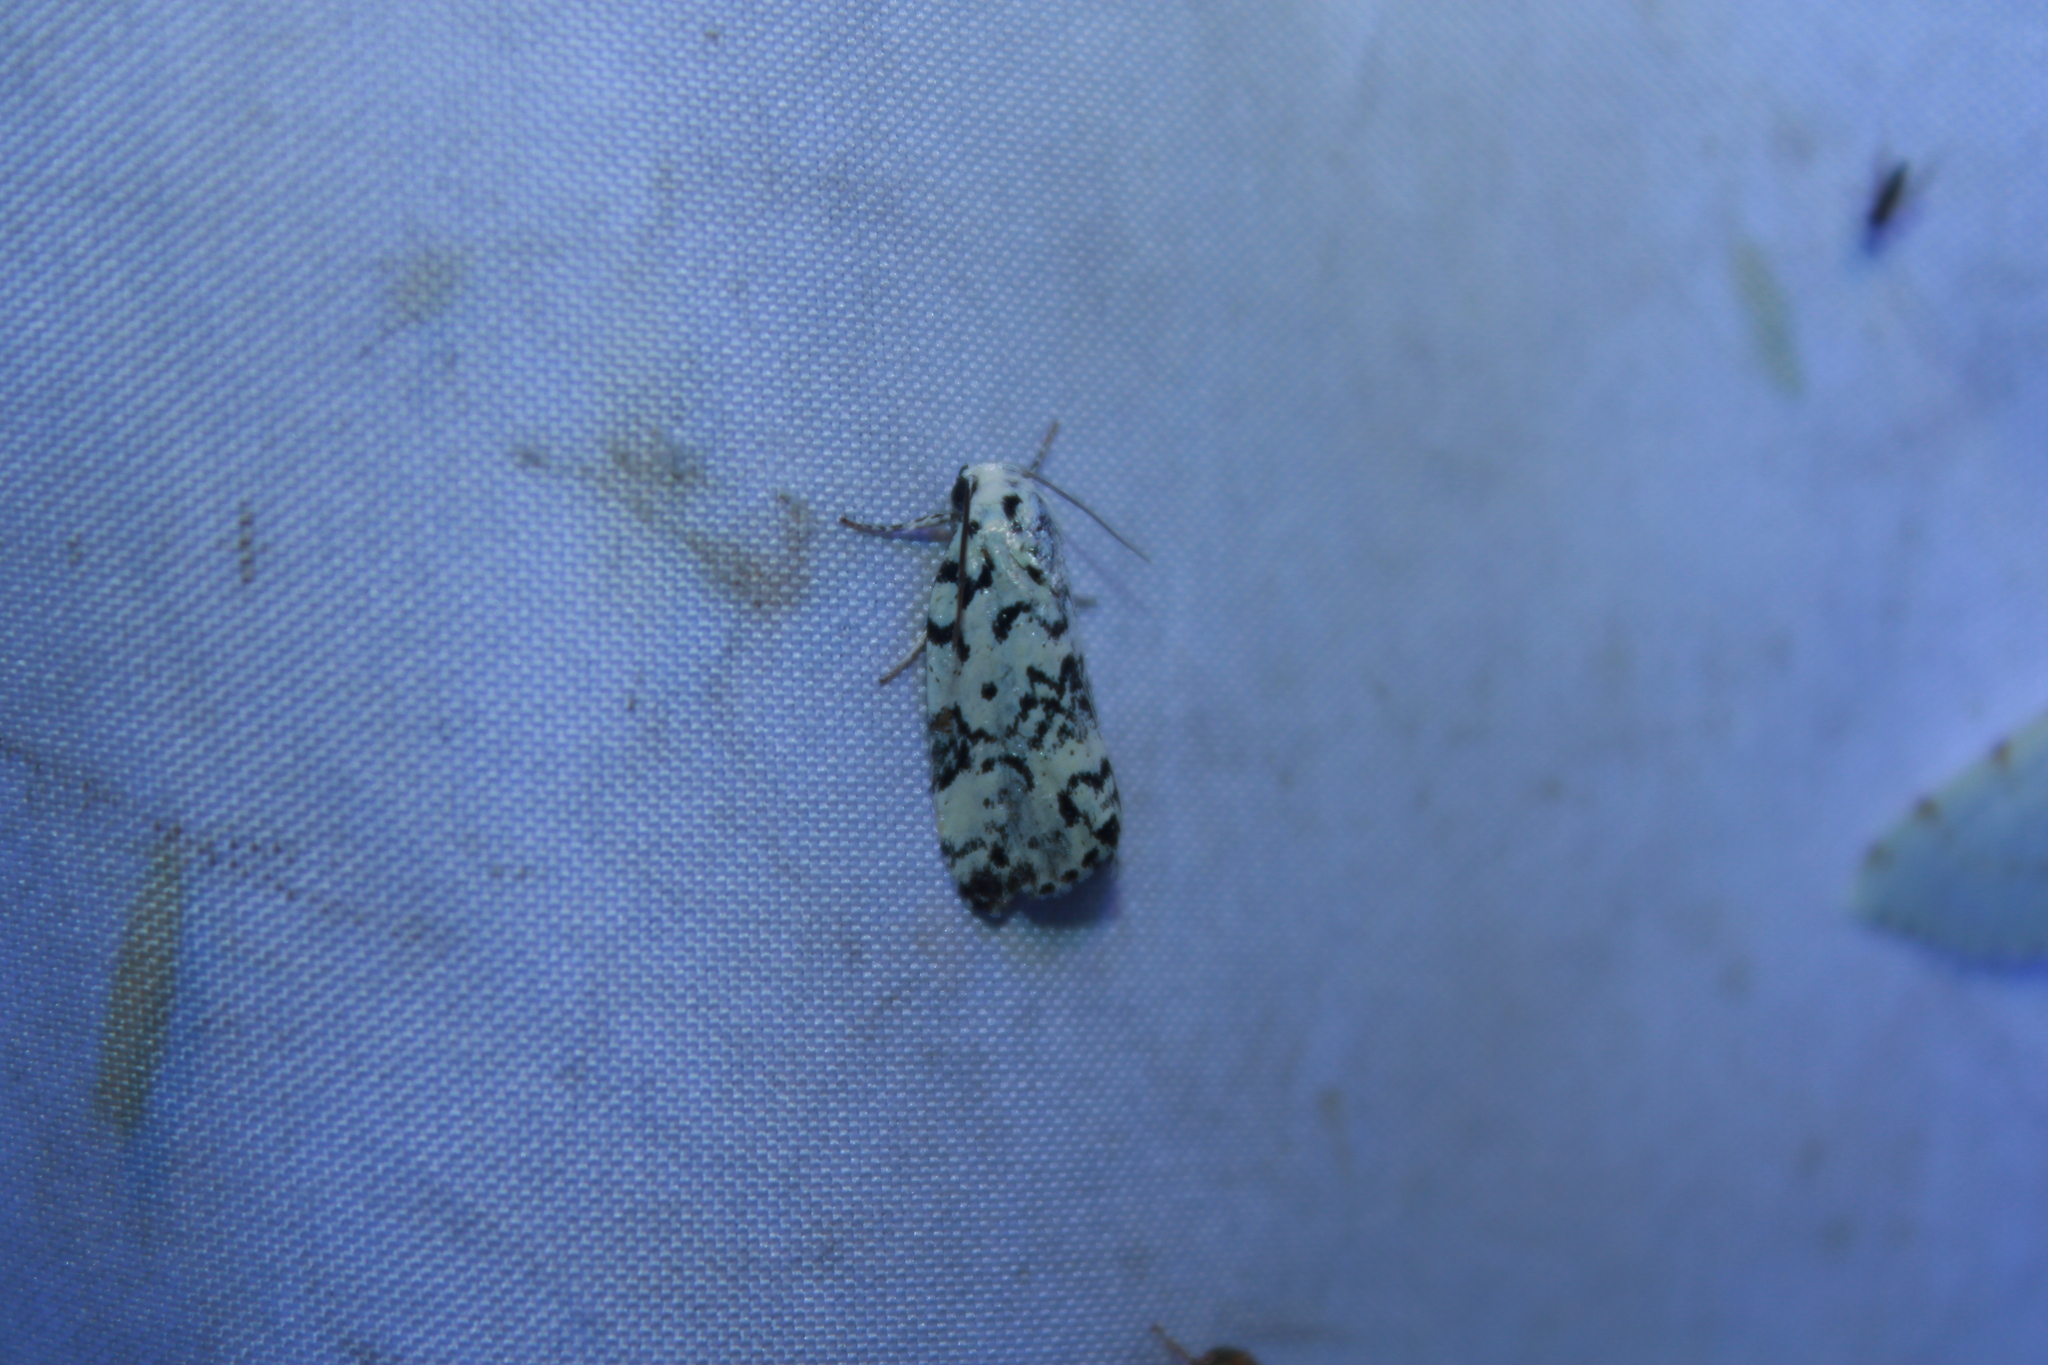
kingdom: Animalia
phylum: Arthropoda
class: Insecta
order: Lepidoptera
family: Noctuidae
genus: Polygrammate
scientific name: Polygrammate hebraeicum
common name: Hebrew moth
